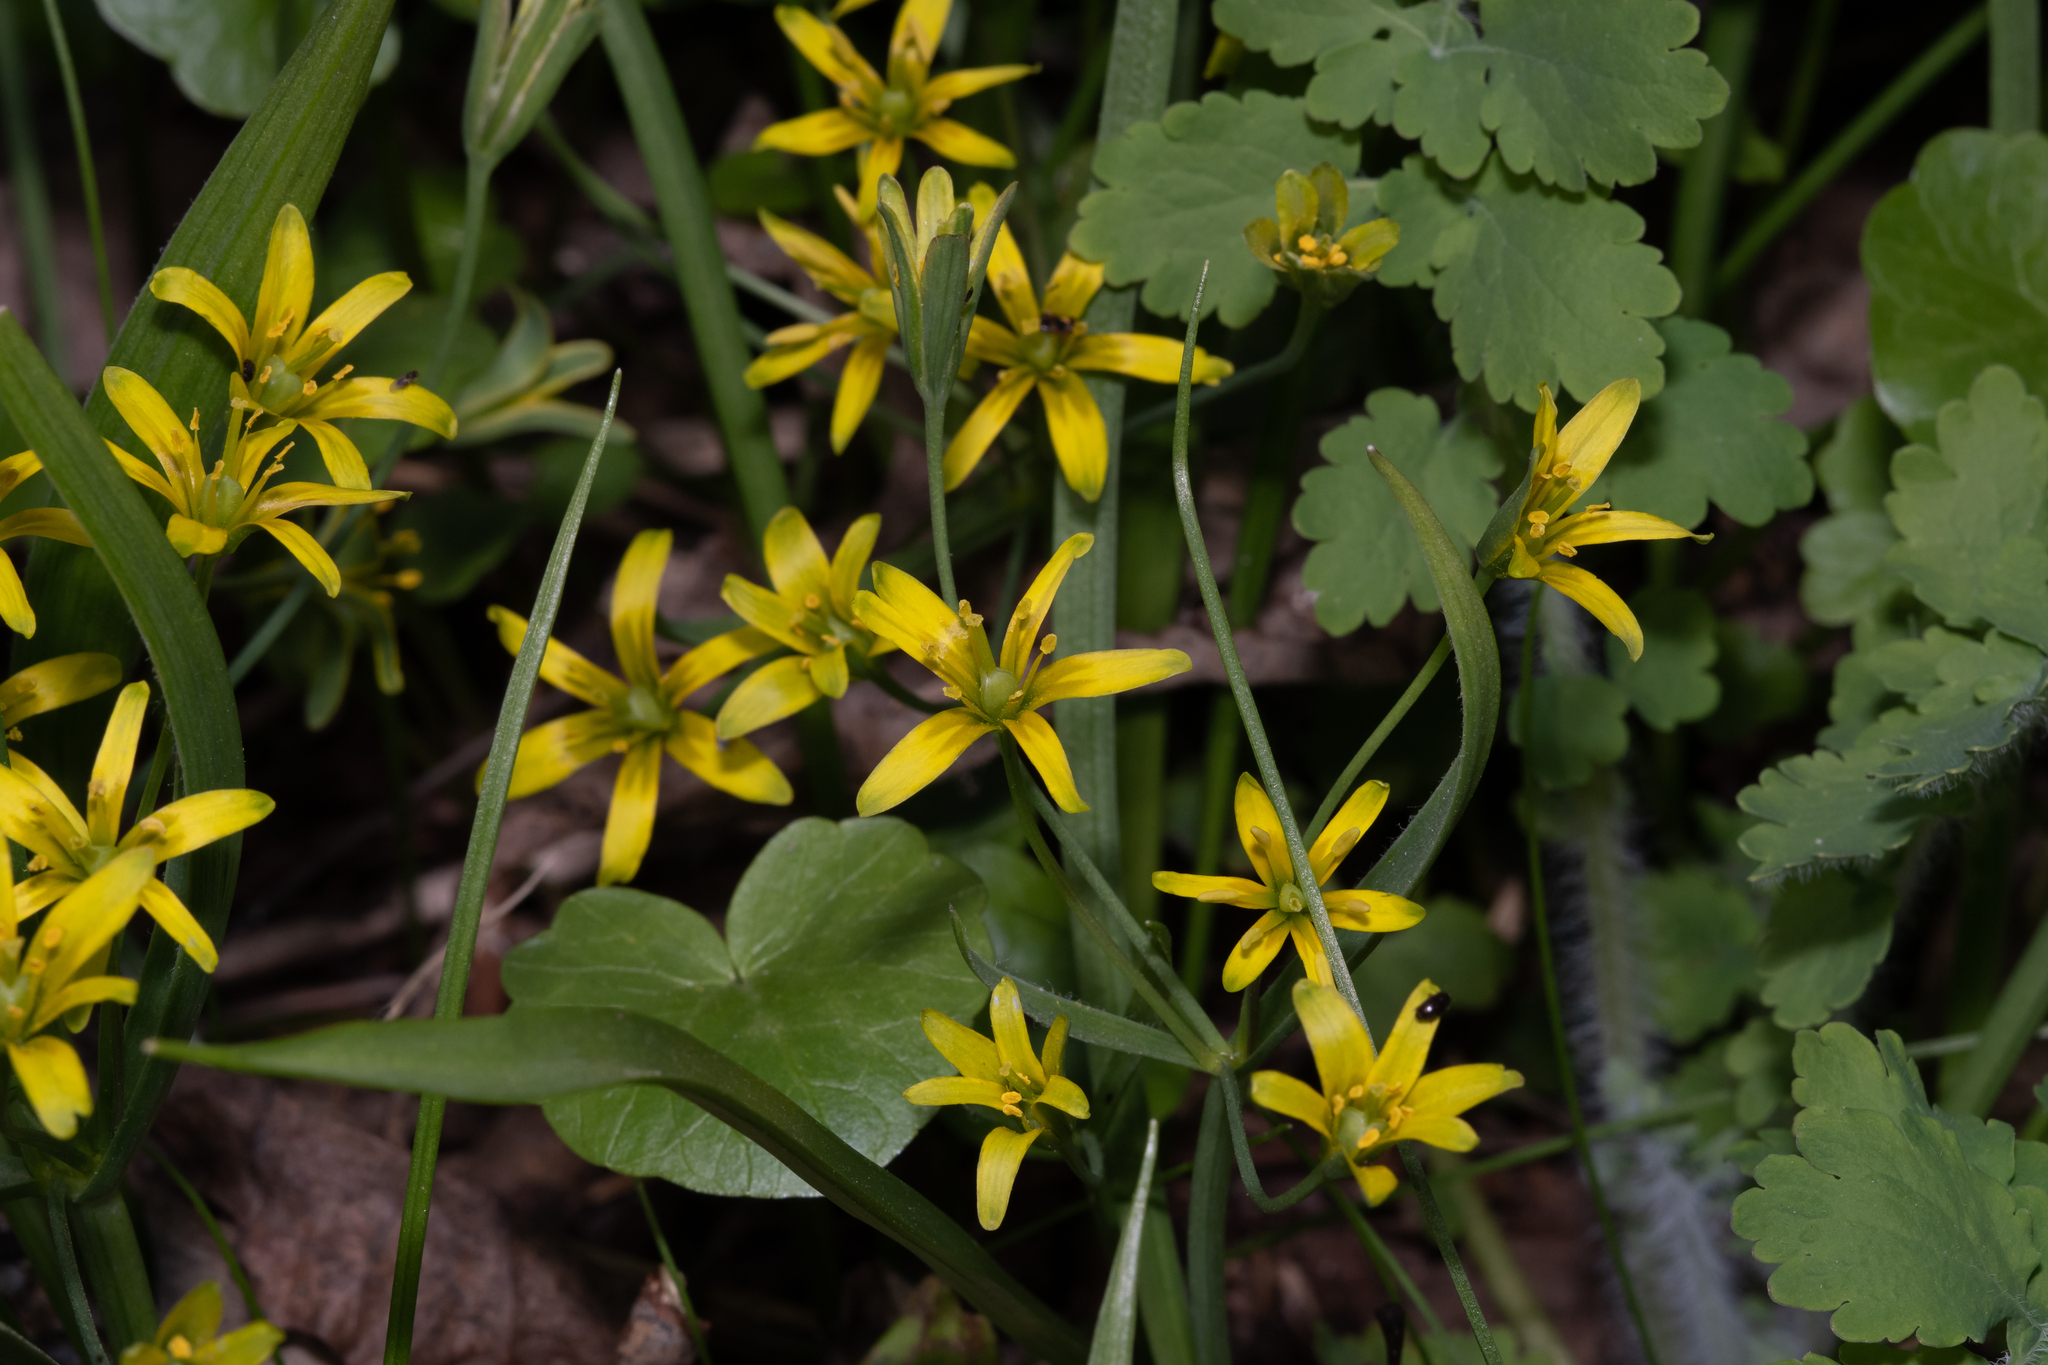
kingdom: Plantae
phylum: Tracheophyta
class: Liliopsida
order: Liliales
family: Liliaceae
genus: Gagea
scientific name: Gagea lutea
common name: Yellow star-of-bethlehem
